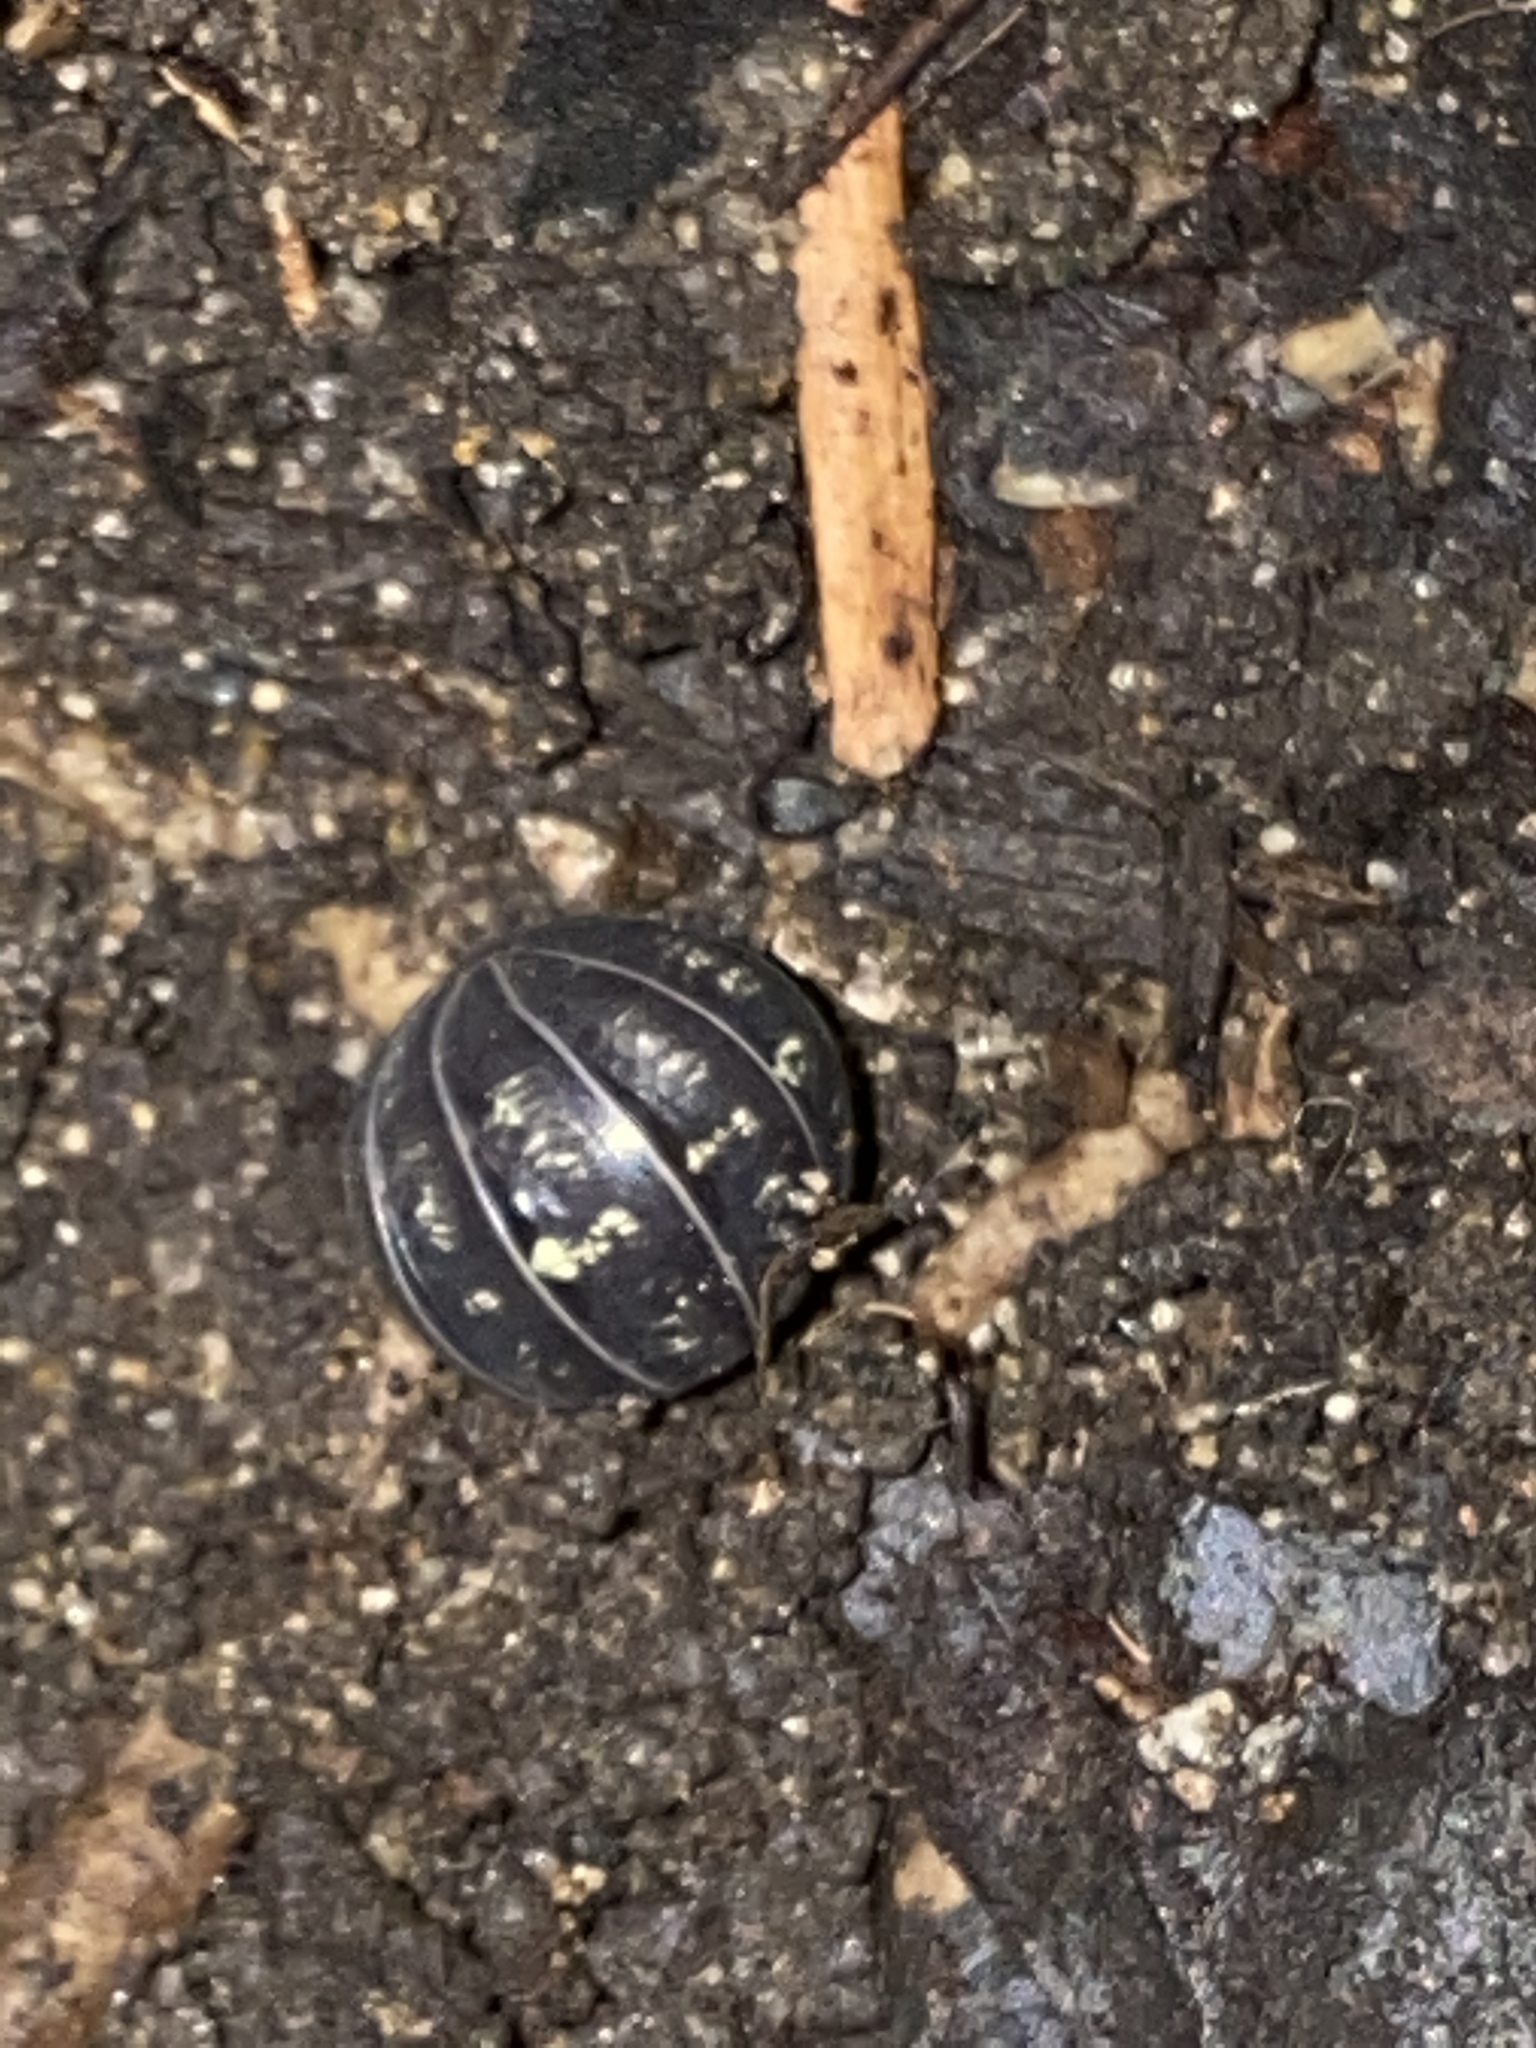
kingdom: Animalia
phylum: Arthropoda
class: Malacostraca
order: Isopoda
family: Armadillidiidae
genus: Armadillidium
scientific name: Armadillidium vulgare
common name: Common pill woodlouse
